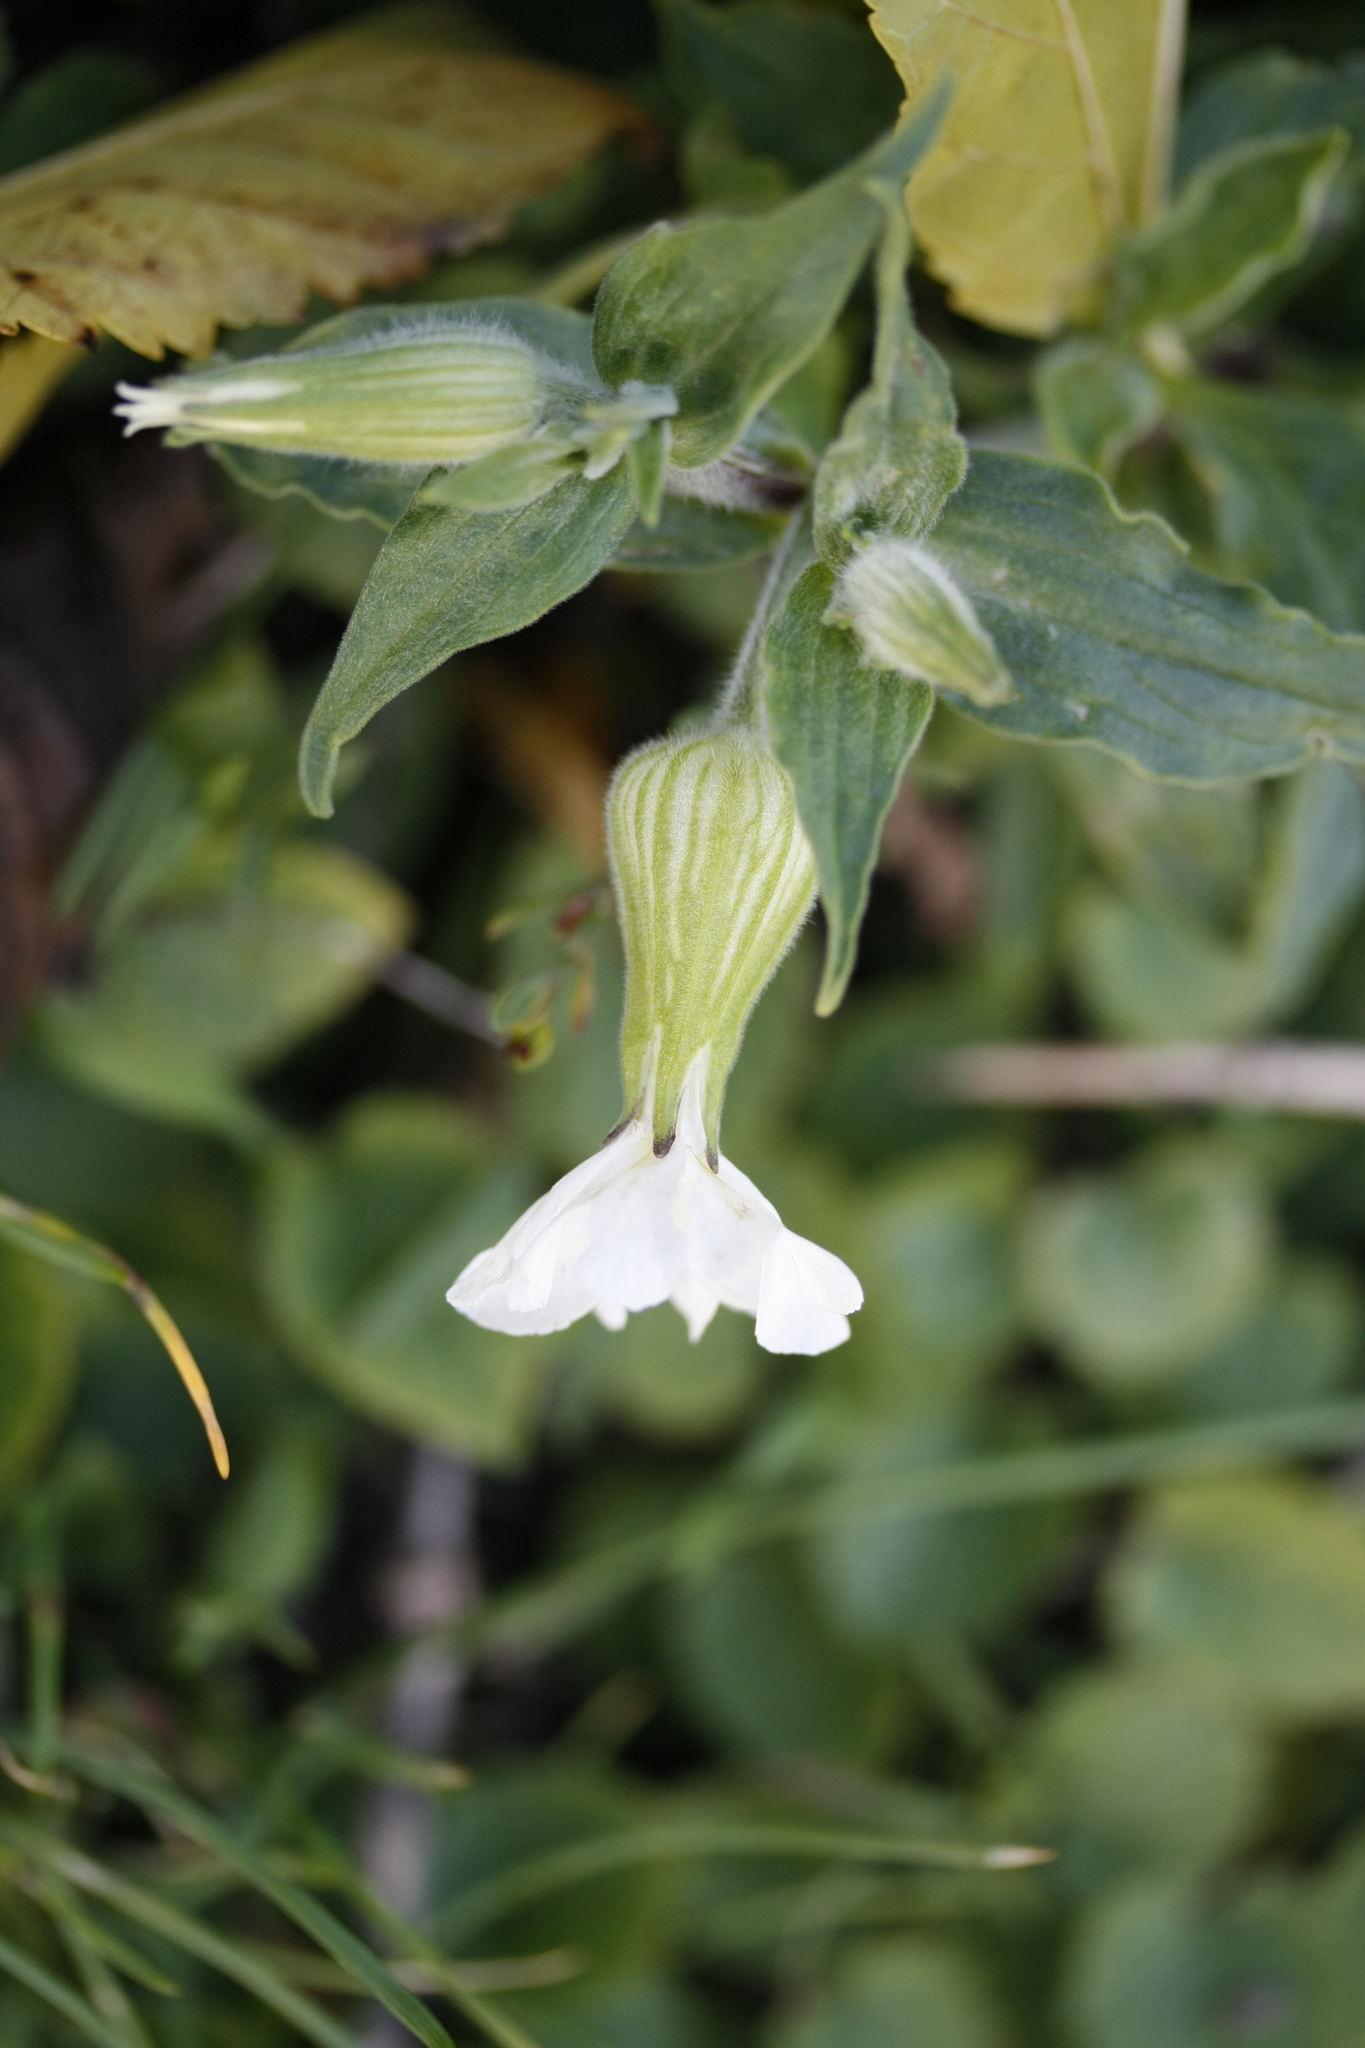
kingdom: Plantae
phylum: Tracheophyta
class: Magnoliopsida
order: Caryophyllales
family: Caryophyllaceae
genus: Silene
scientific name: Silene latifolia
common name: White campion
